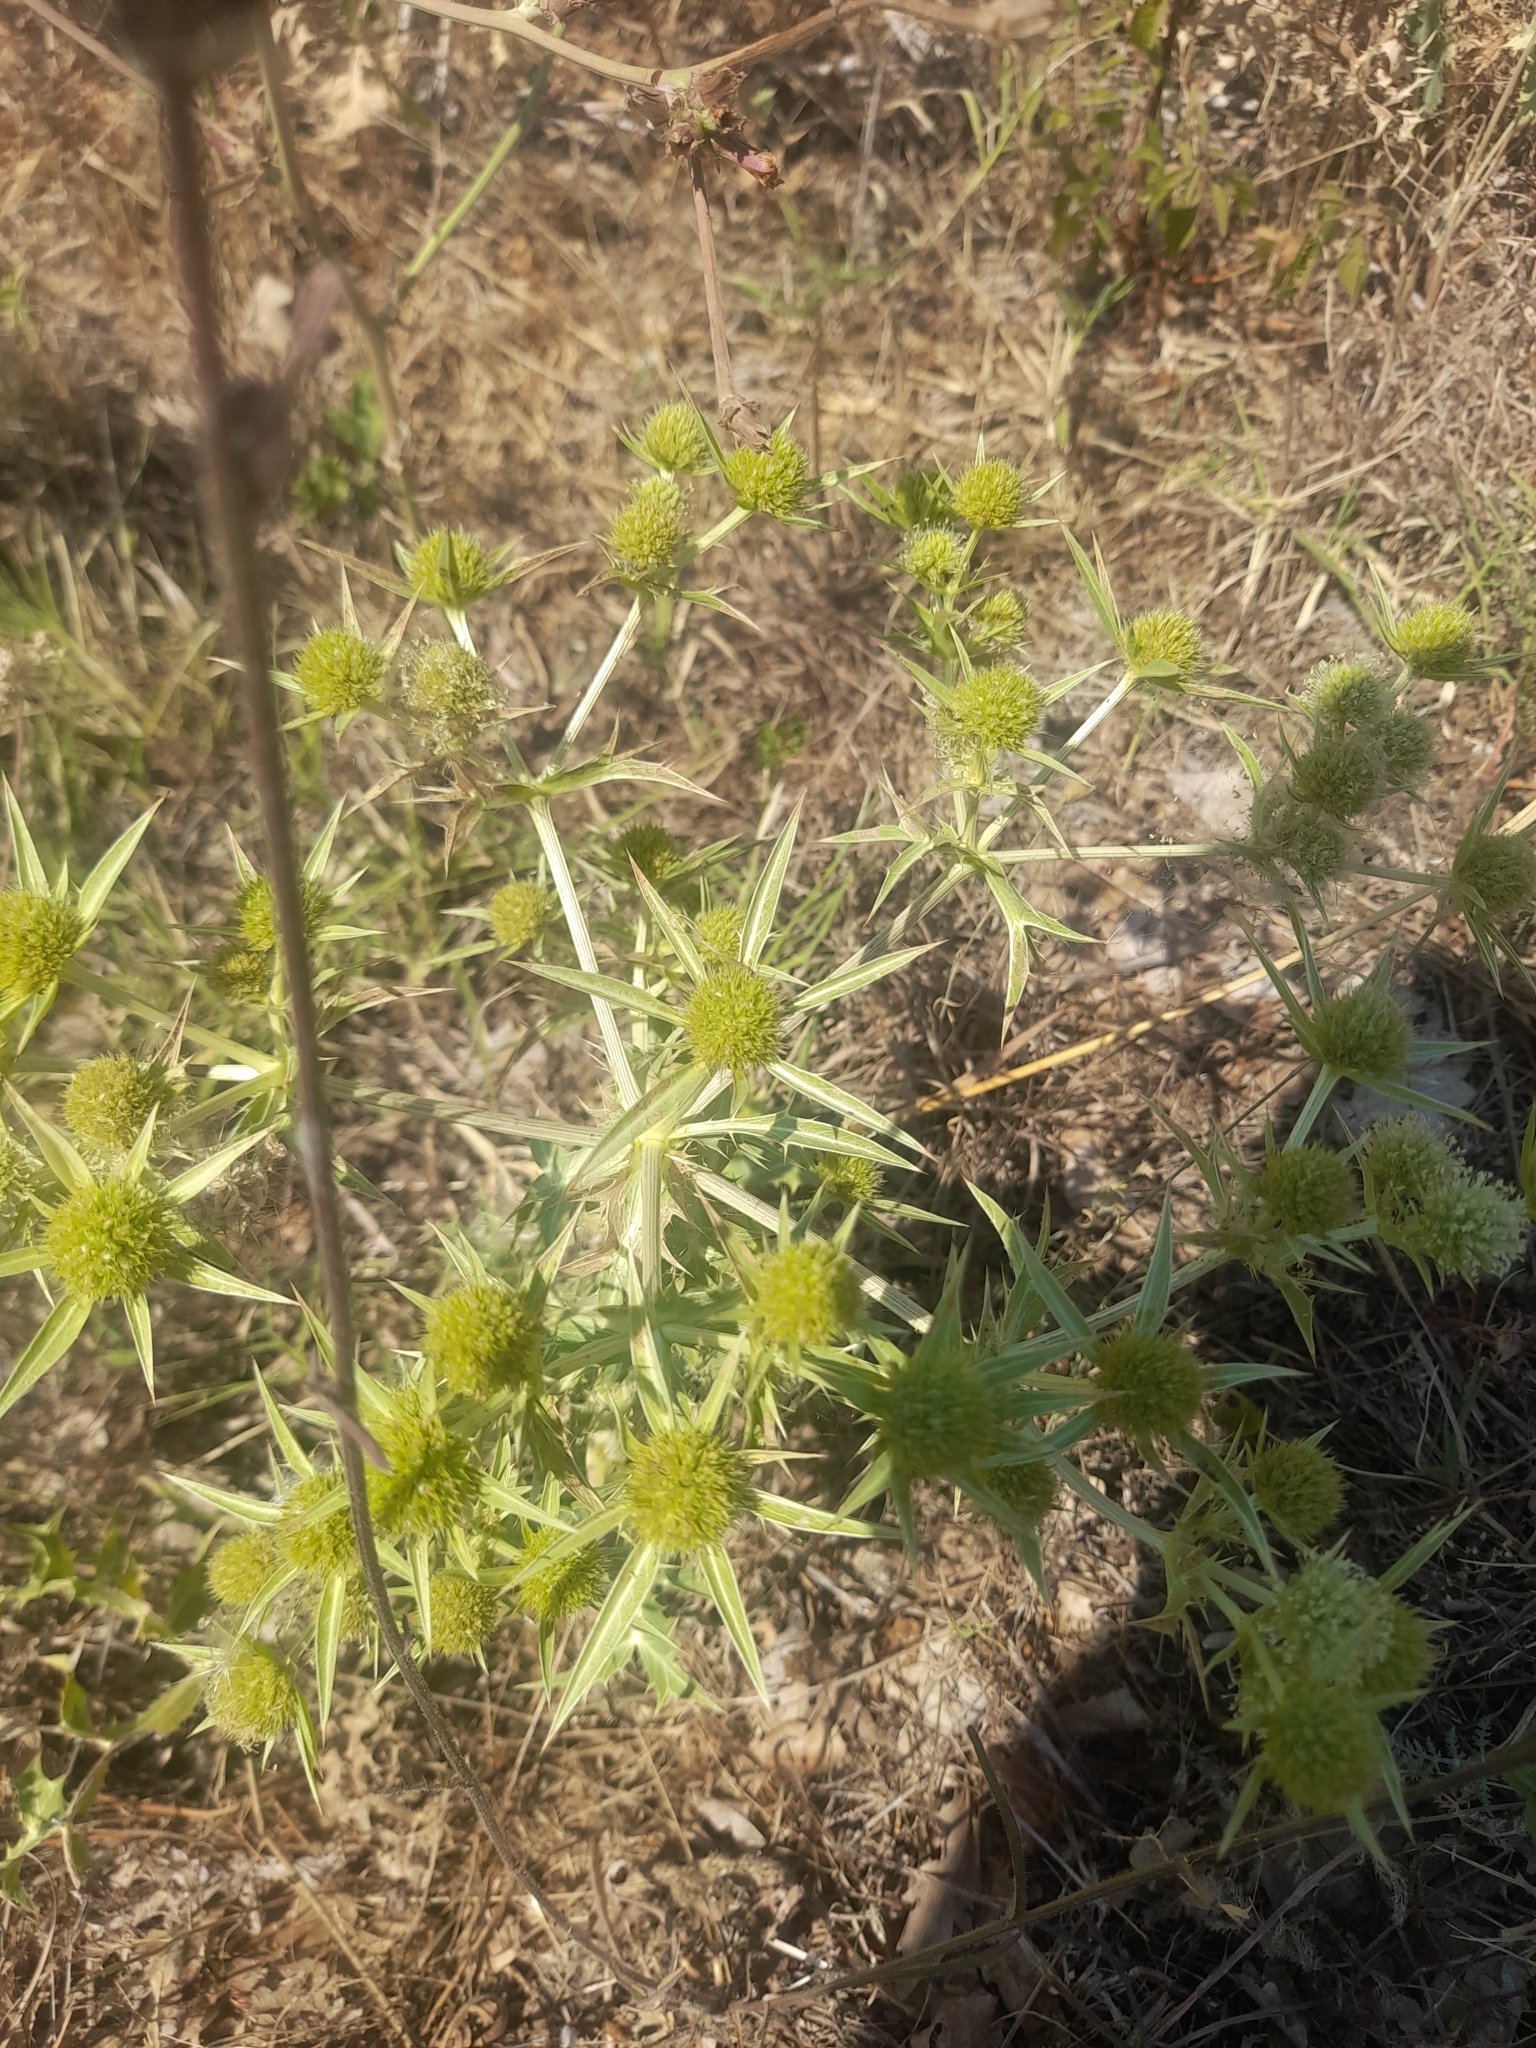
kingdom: Plantae
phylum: Tracheophyta
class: Magnoliopsida
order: Apiales
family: Apiaceae
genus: Eryngium
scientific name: Eryngium campestre
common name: Field eryngo
